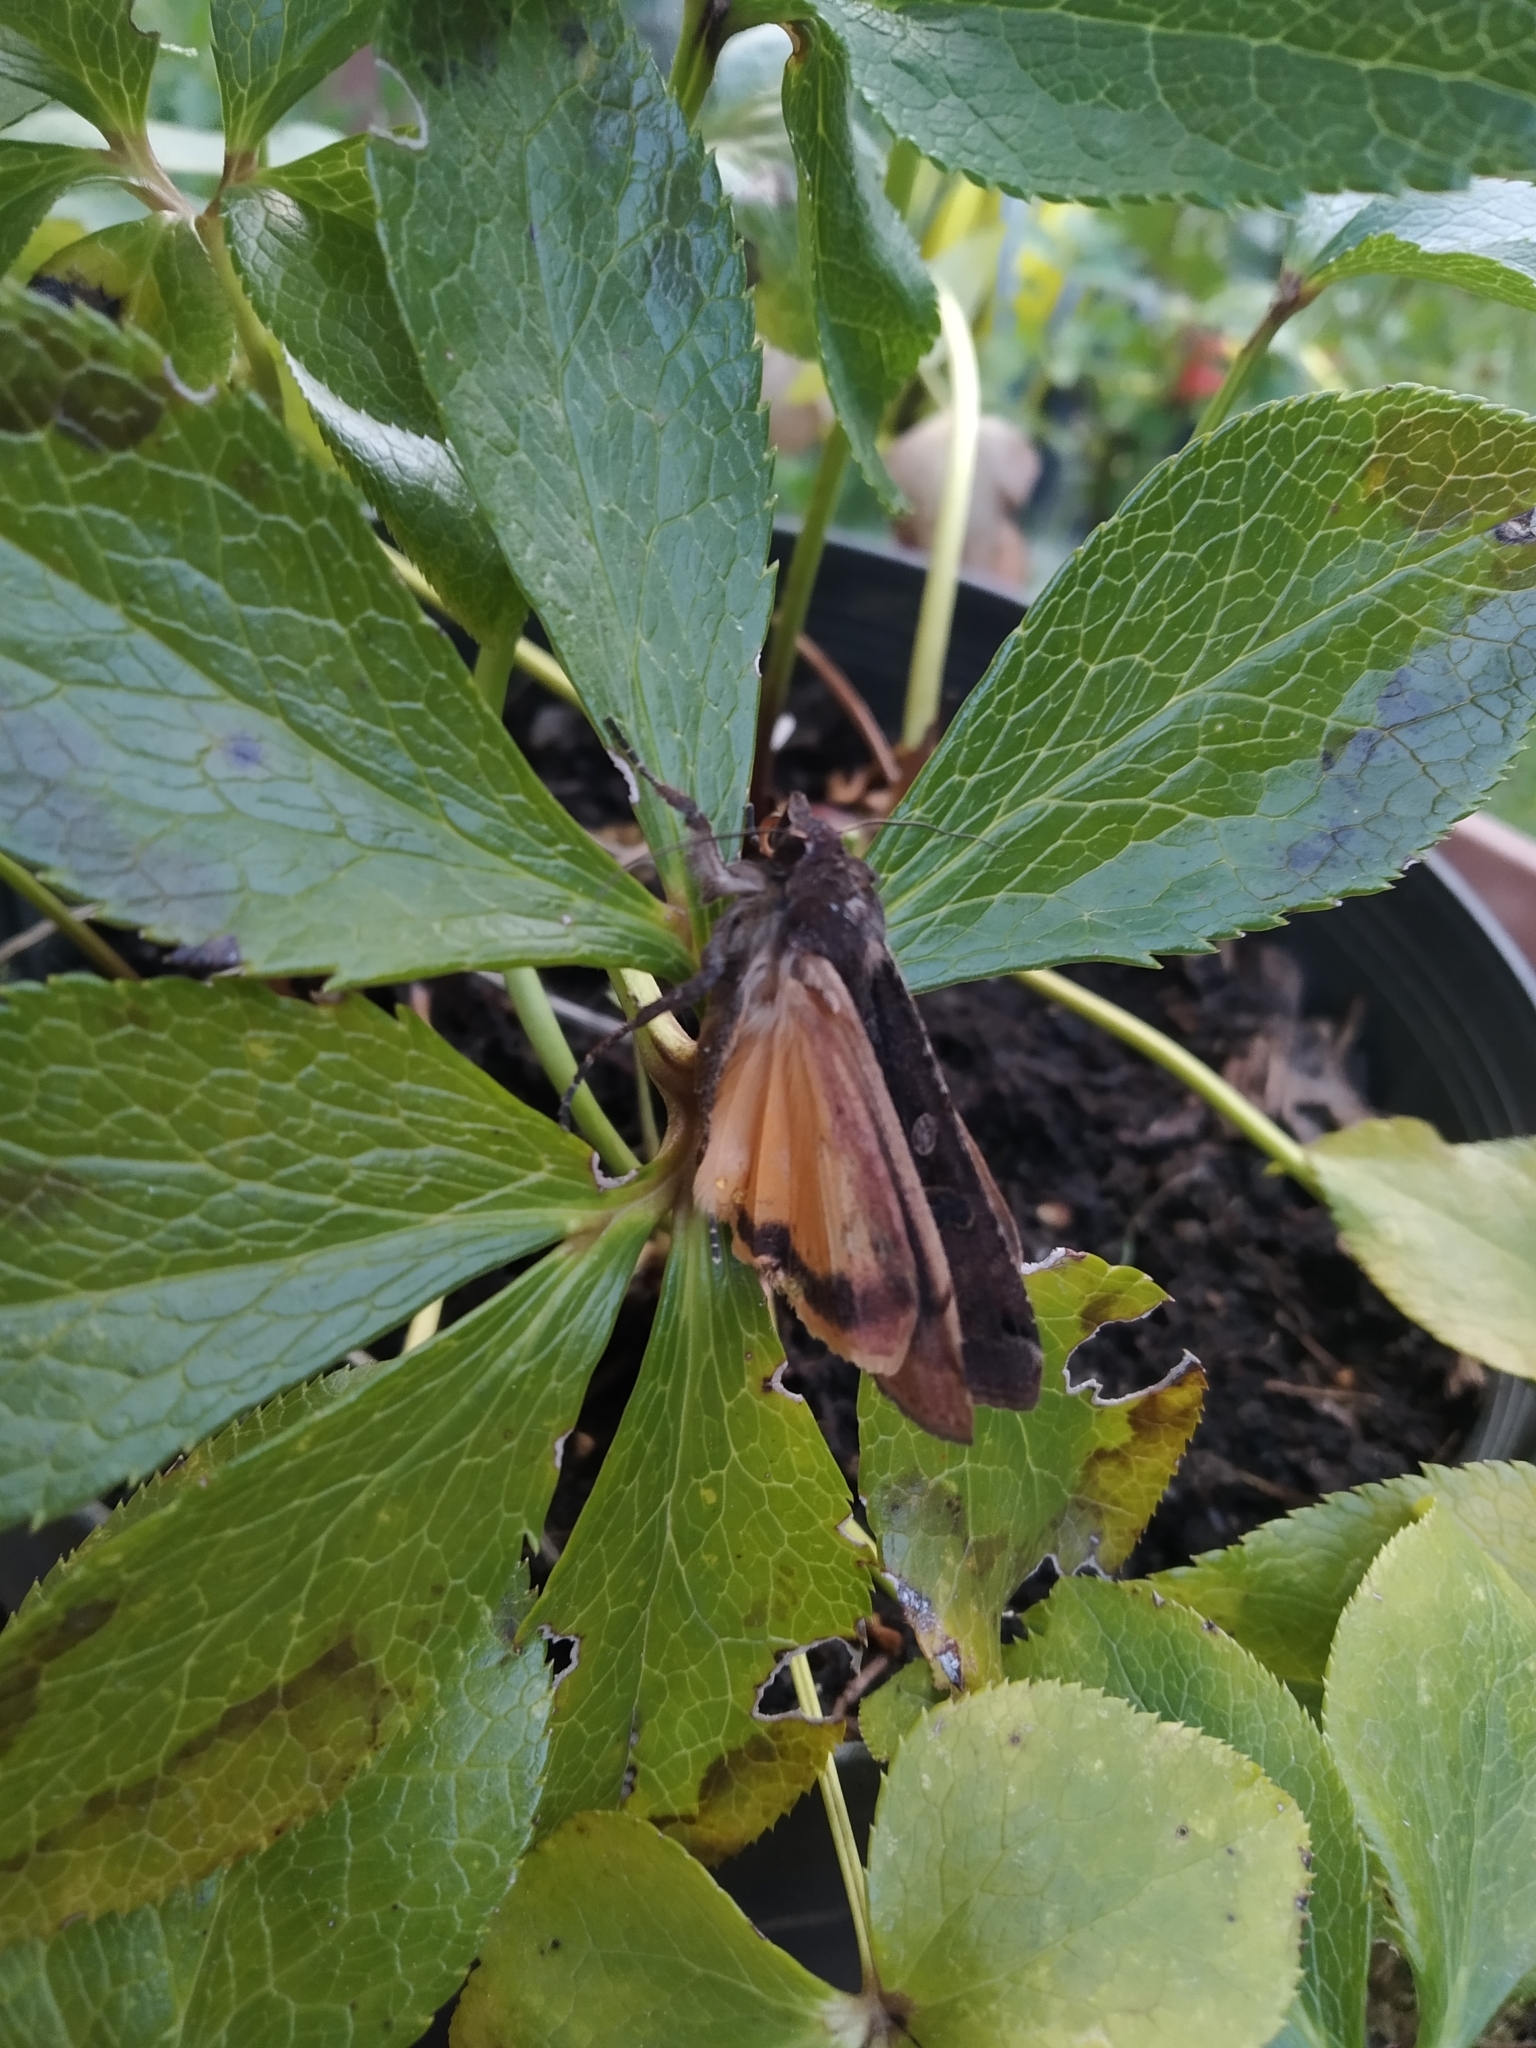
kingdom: Animalia
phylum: Arthropoda
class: Insecta
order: Lepidoptera
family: Noctuidae
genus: Noctua
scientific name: Noctua pronuba
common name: Large yellow underwing
